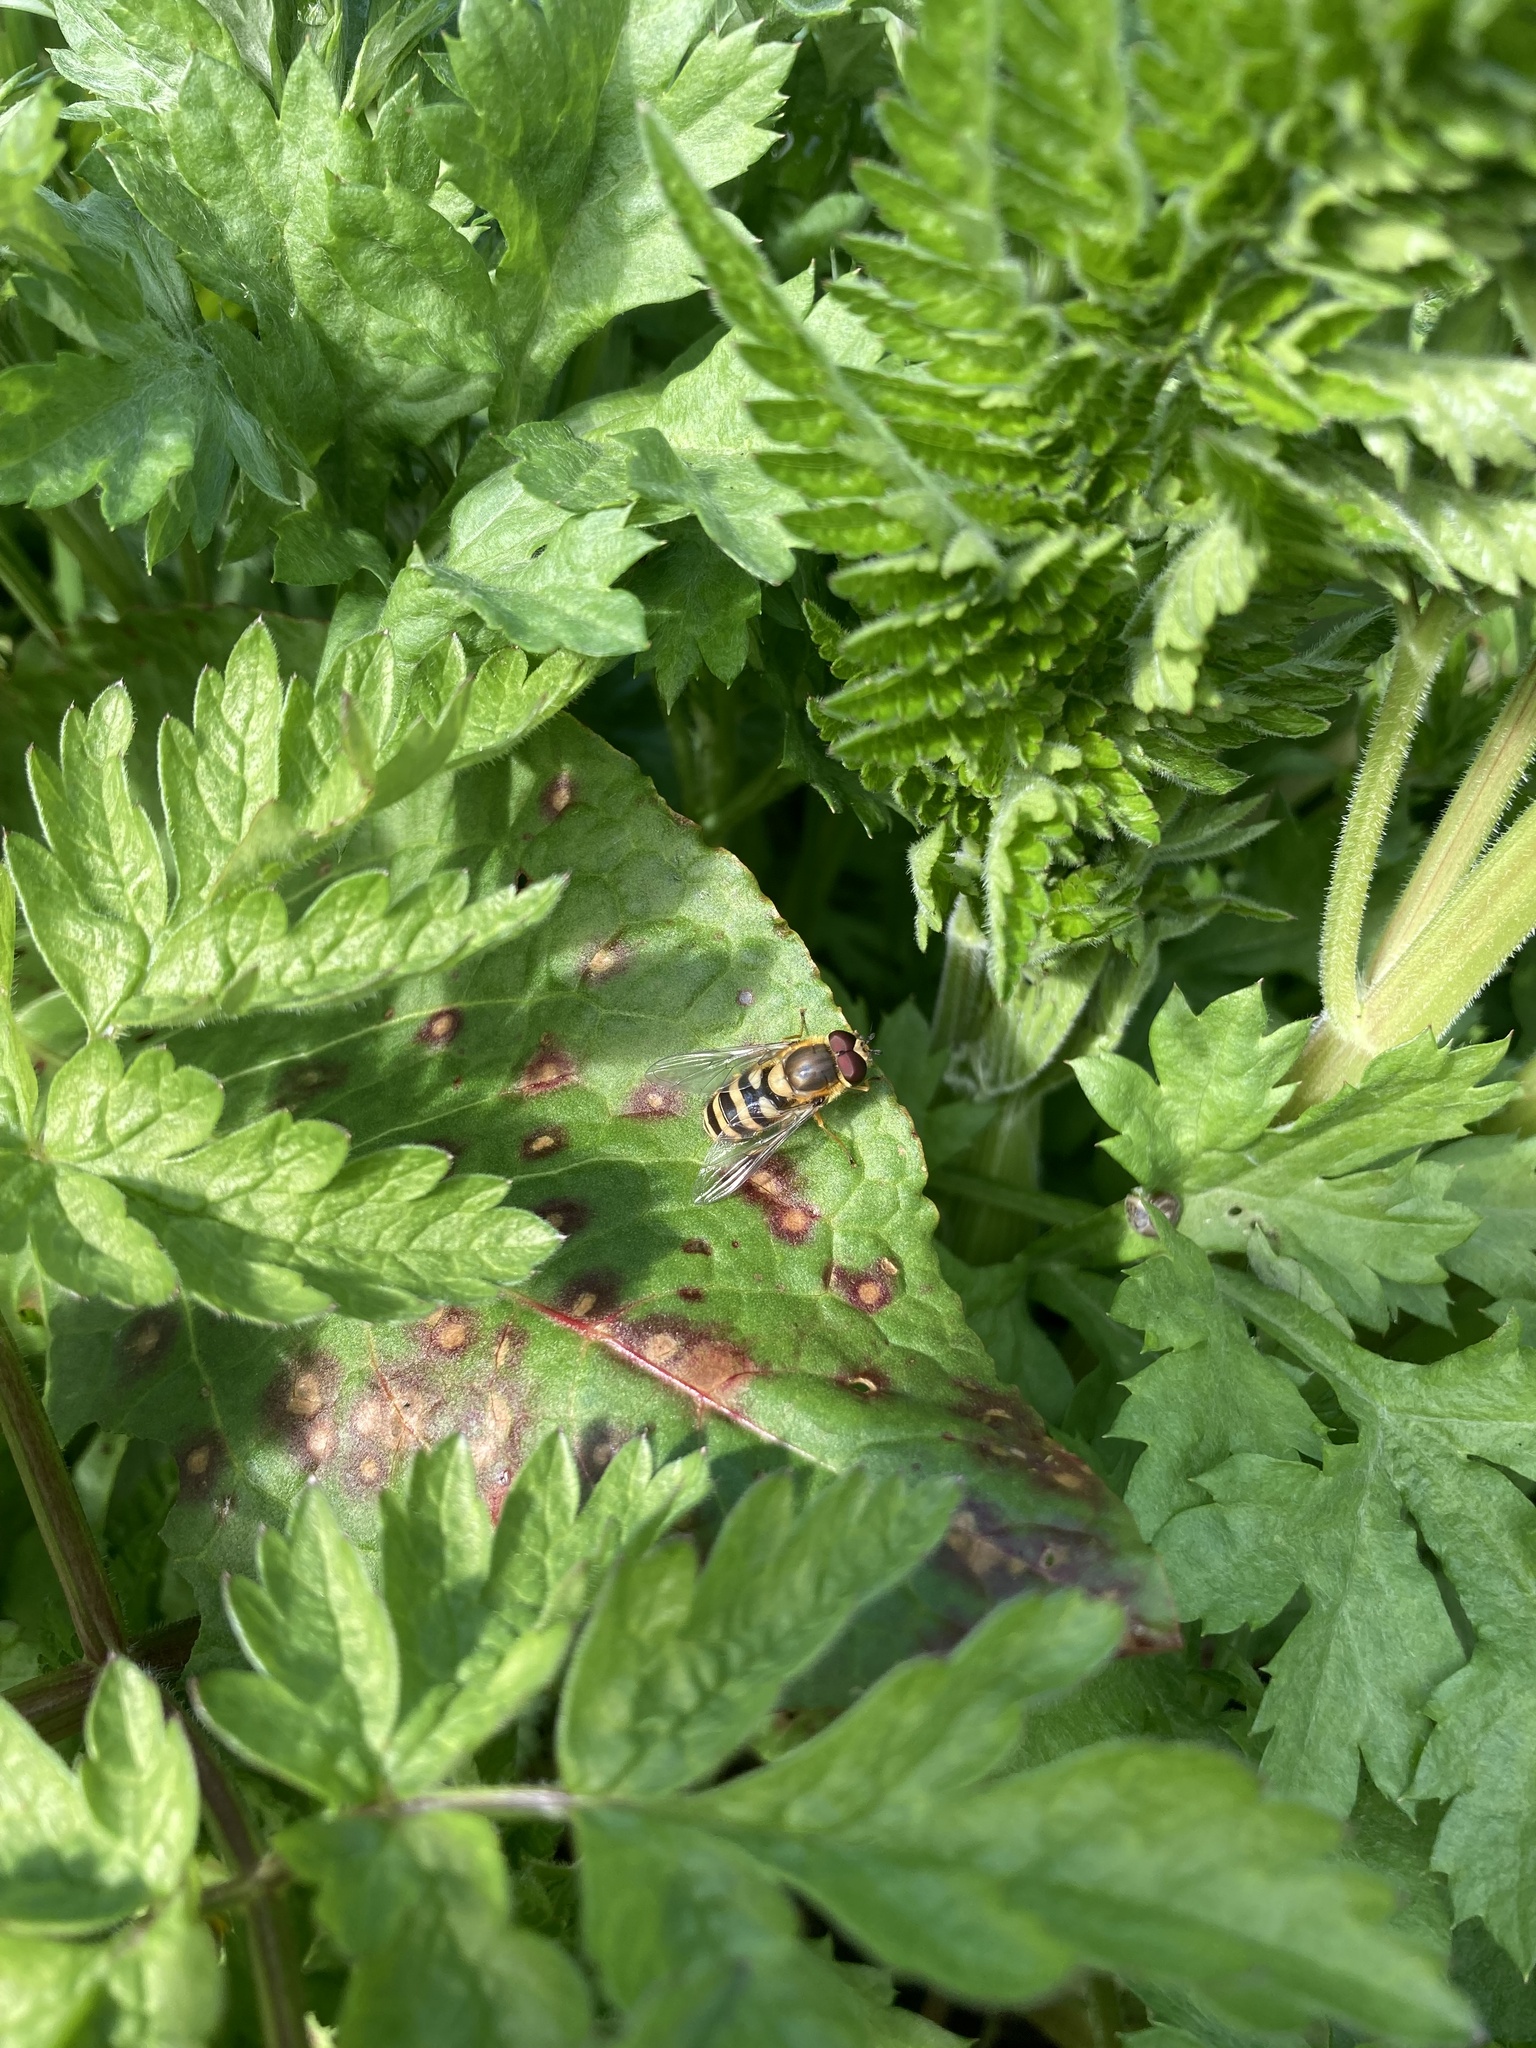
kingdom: Animalia
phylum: Arthropoda
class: Insecta
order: Diptera
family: Syrphidae
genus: Syrphus
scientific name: Syrphus
